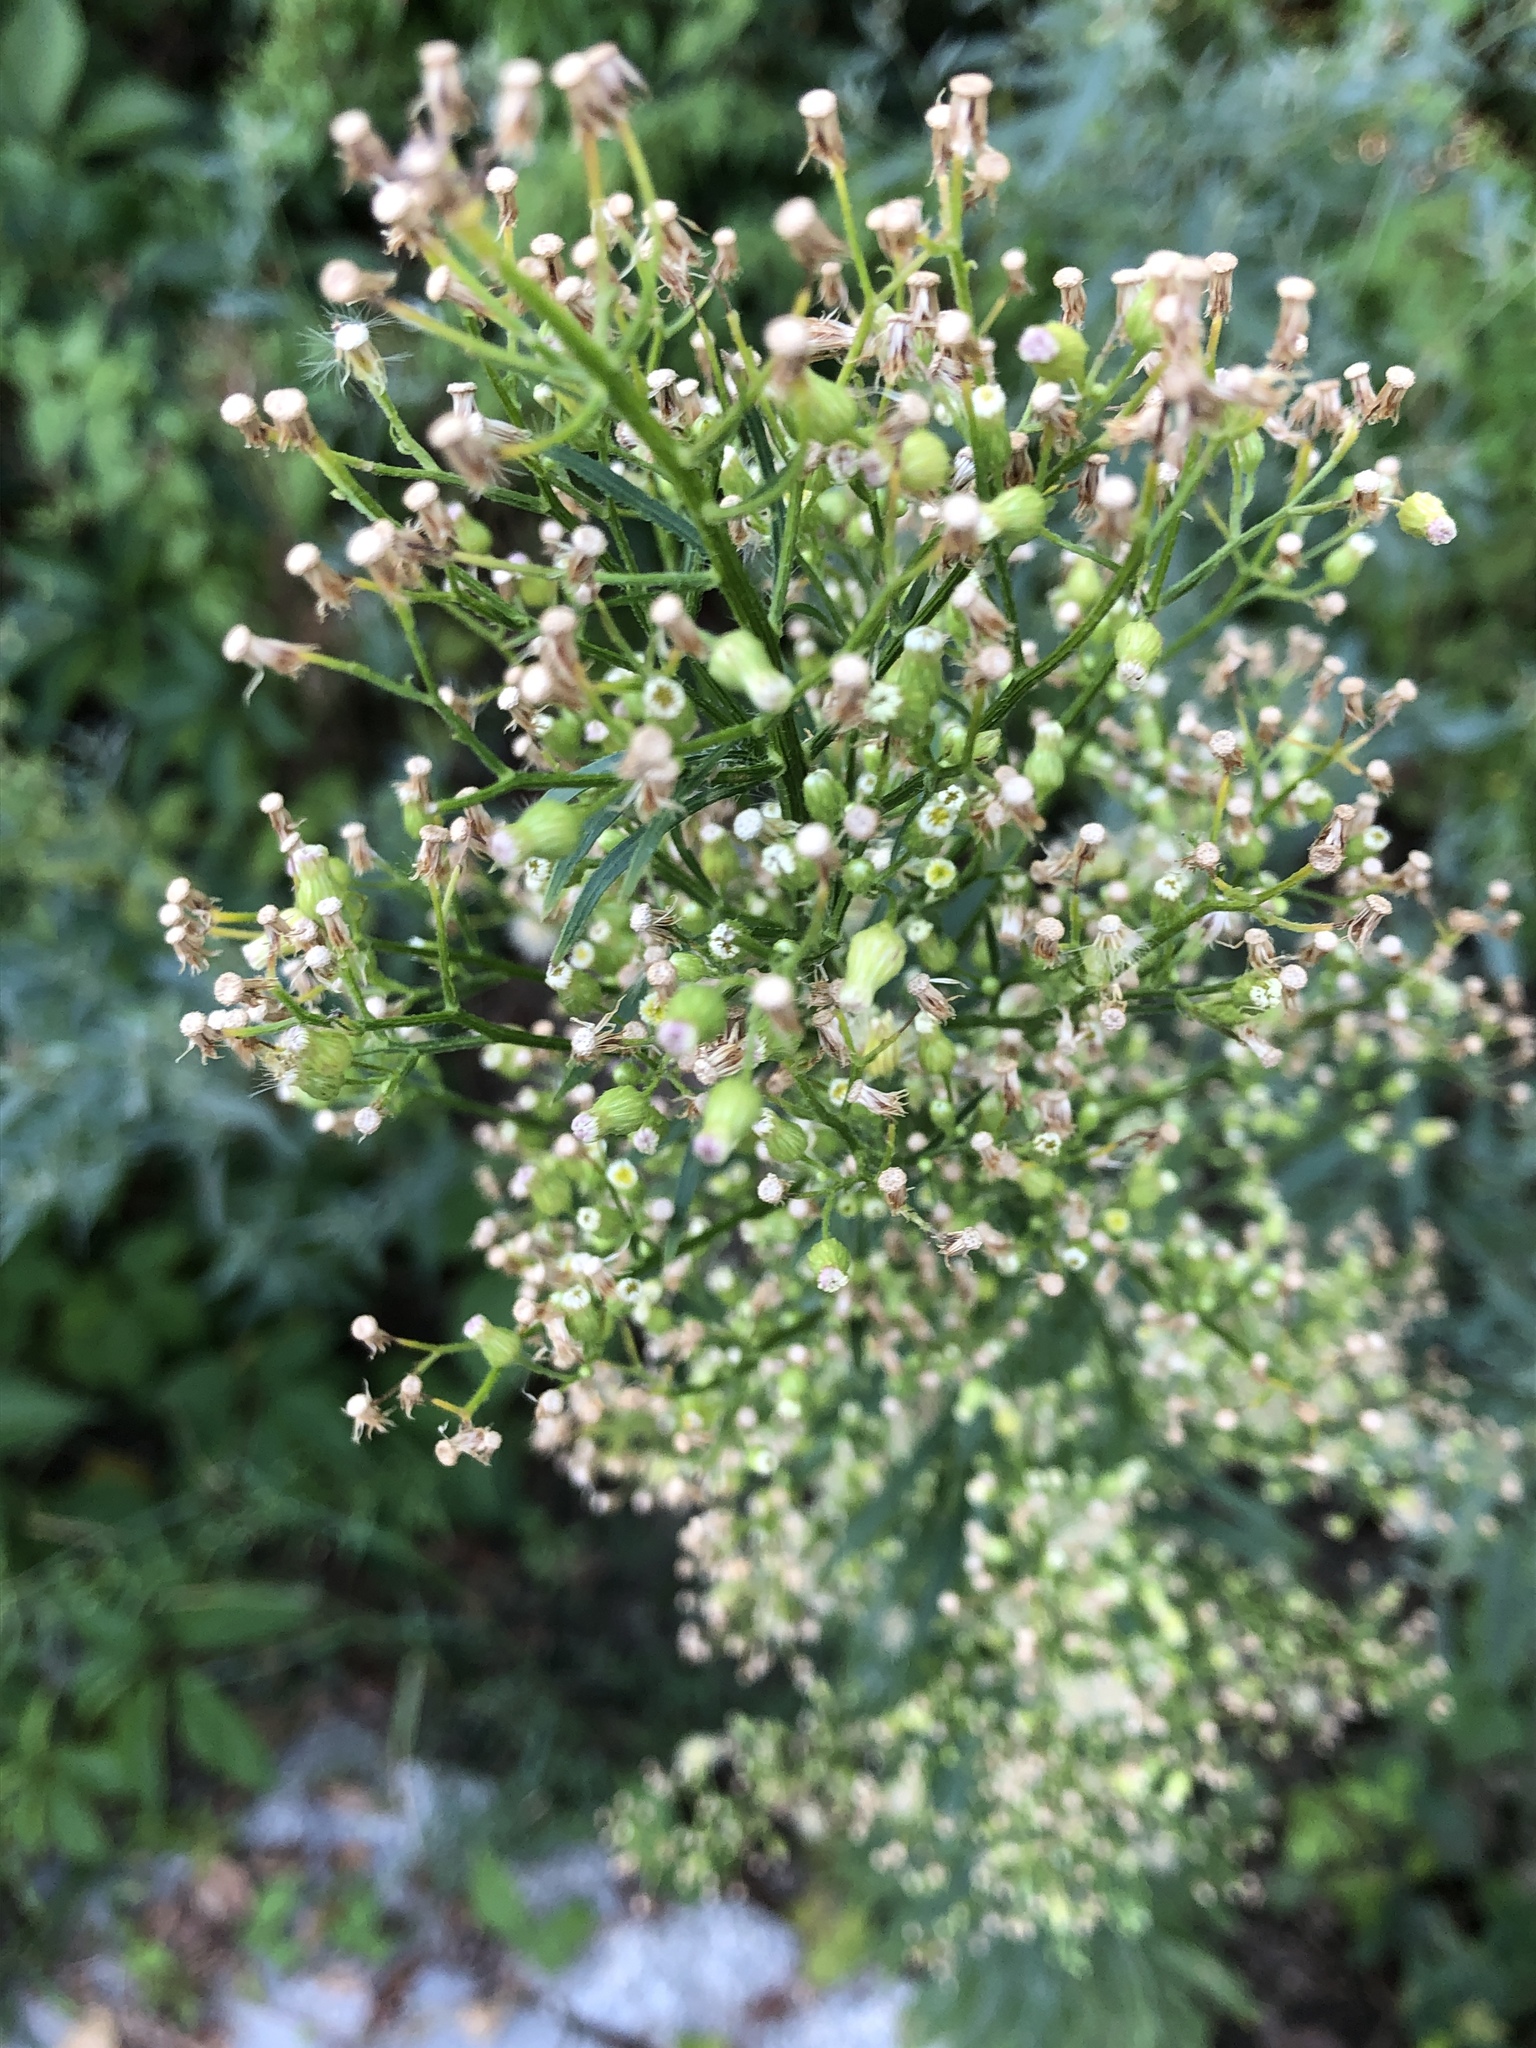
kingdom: Plantae
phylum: Tracheophyta
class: Magnoliopsida
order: Asterales
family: Asteraceae
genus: Erigeron
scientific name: Erigeron canadensis
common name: Canadian fleabane
